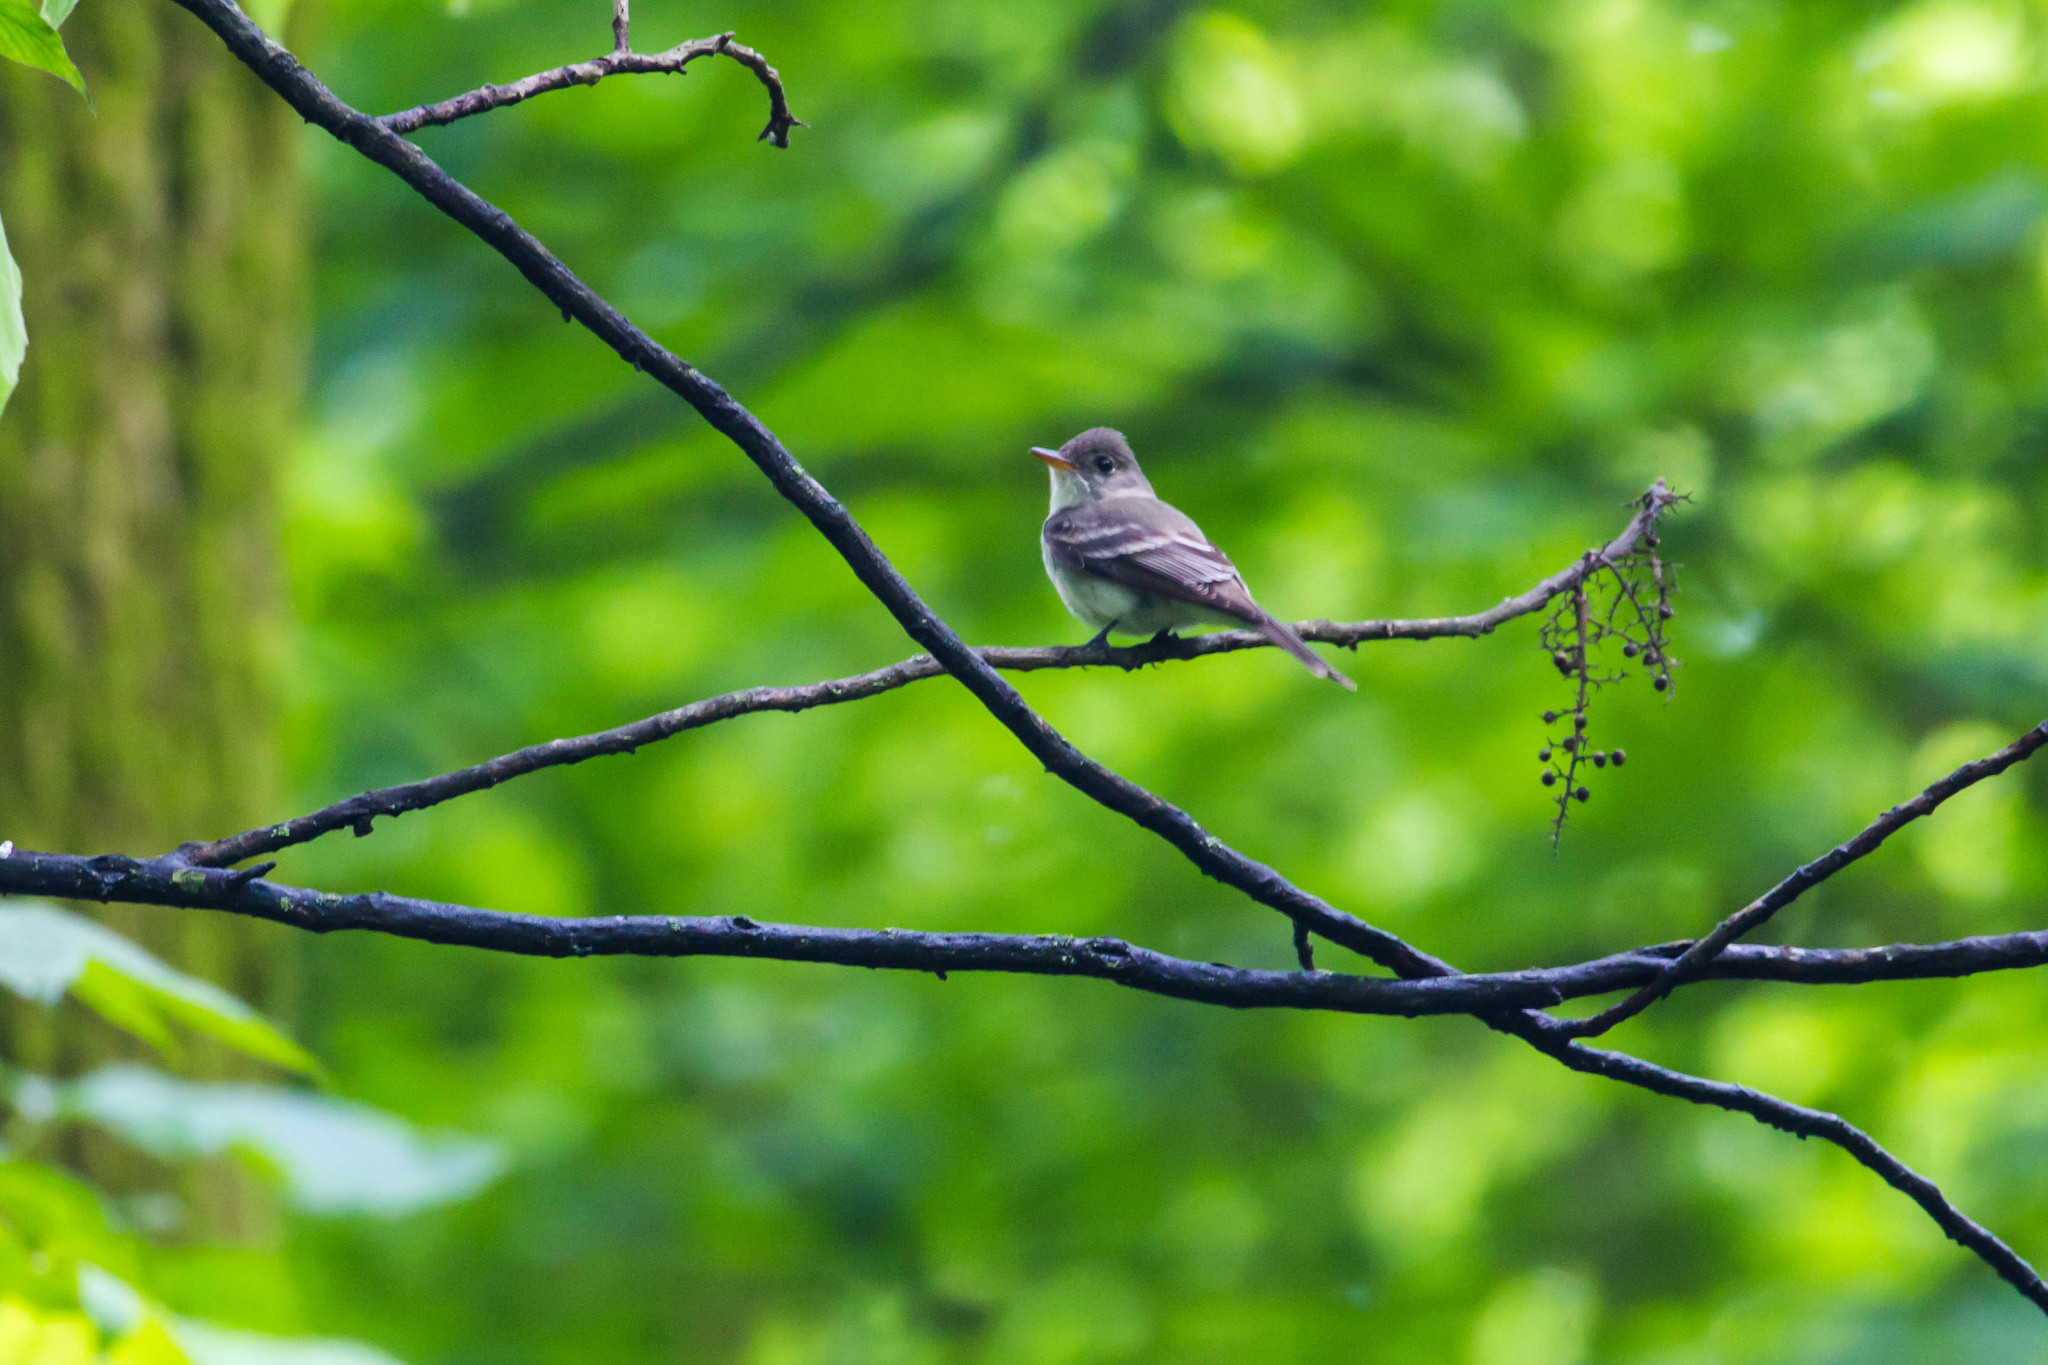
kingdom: Animalia
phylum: Chordata
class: Aves
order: Passeriformes
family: Tyrannidae
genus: Empidonax
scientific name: Empidonax virescens
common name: Acadian flycatcher
